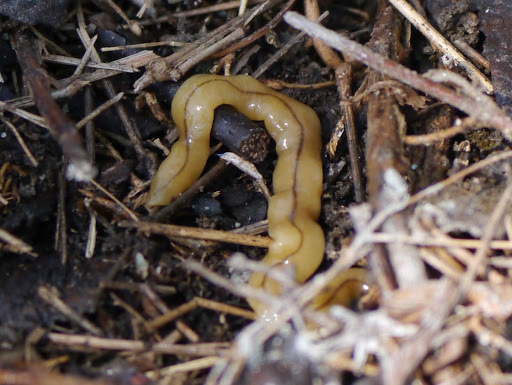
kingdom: Animalia
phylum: Platyhelminthes
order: Tricladida
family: Geoplanidae
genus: Bipalium
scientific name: Bipalium adventitium
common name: Land planarian
